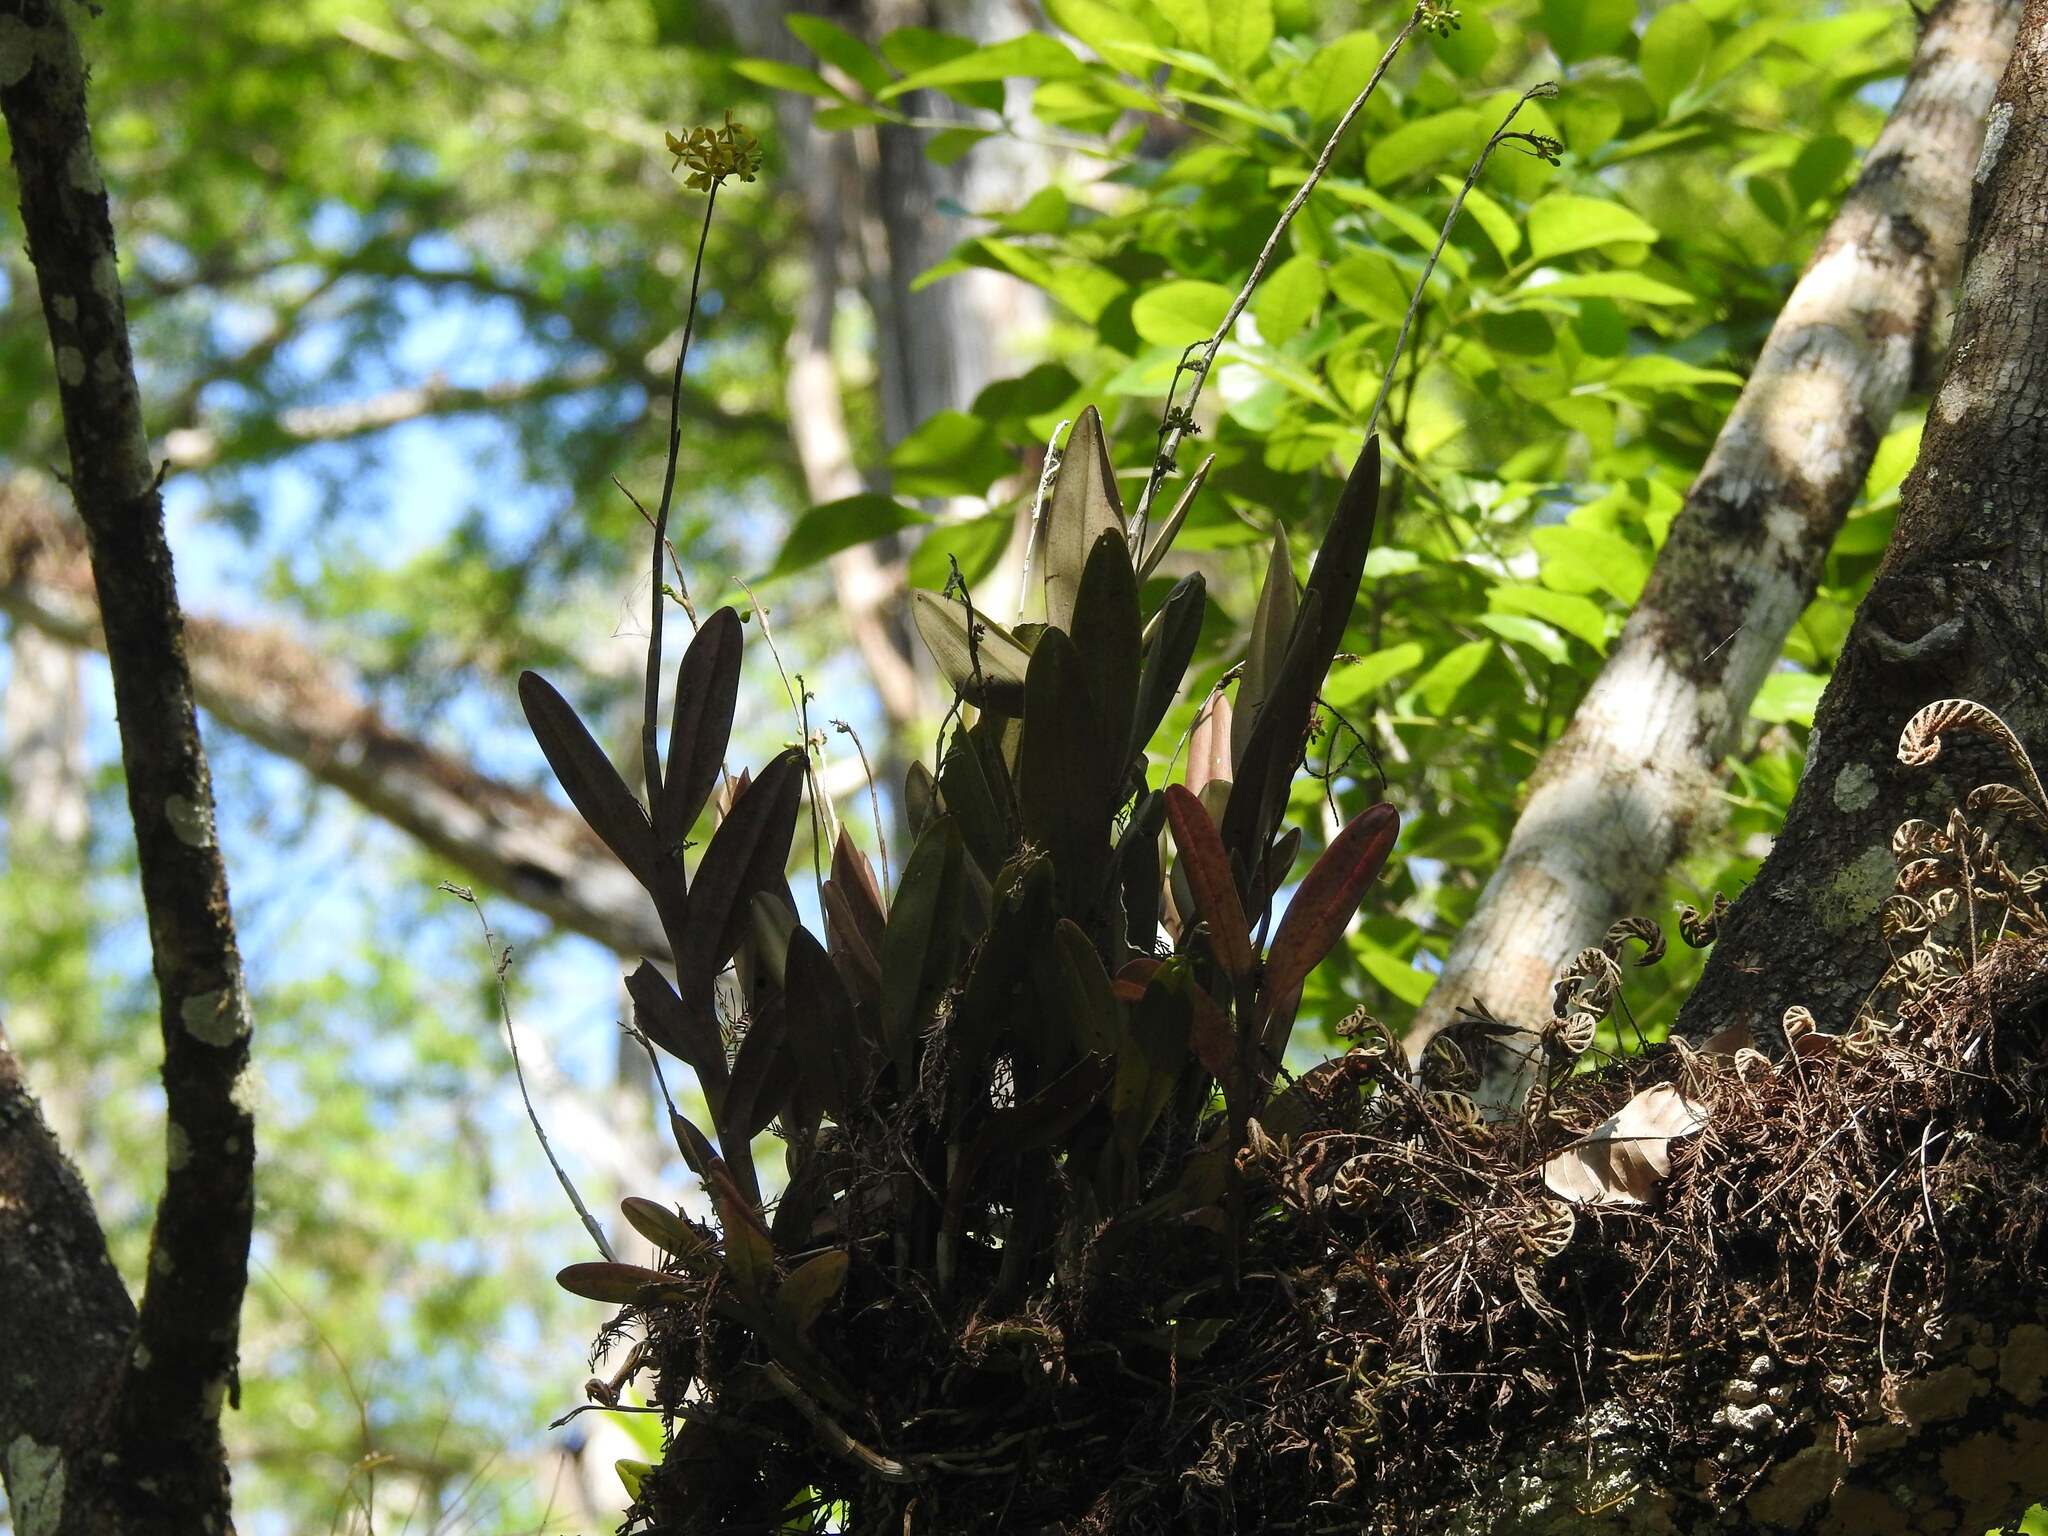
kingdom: Plantae
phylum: Tracheophyta
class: Liliopsida
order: Asparagales
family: Orchidaceae
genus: Epidendrum
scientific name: Epidendrum amphistomum
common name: Big-mouth star orchid
